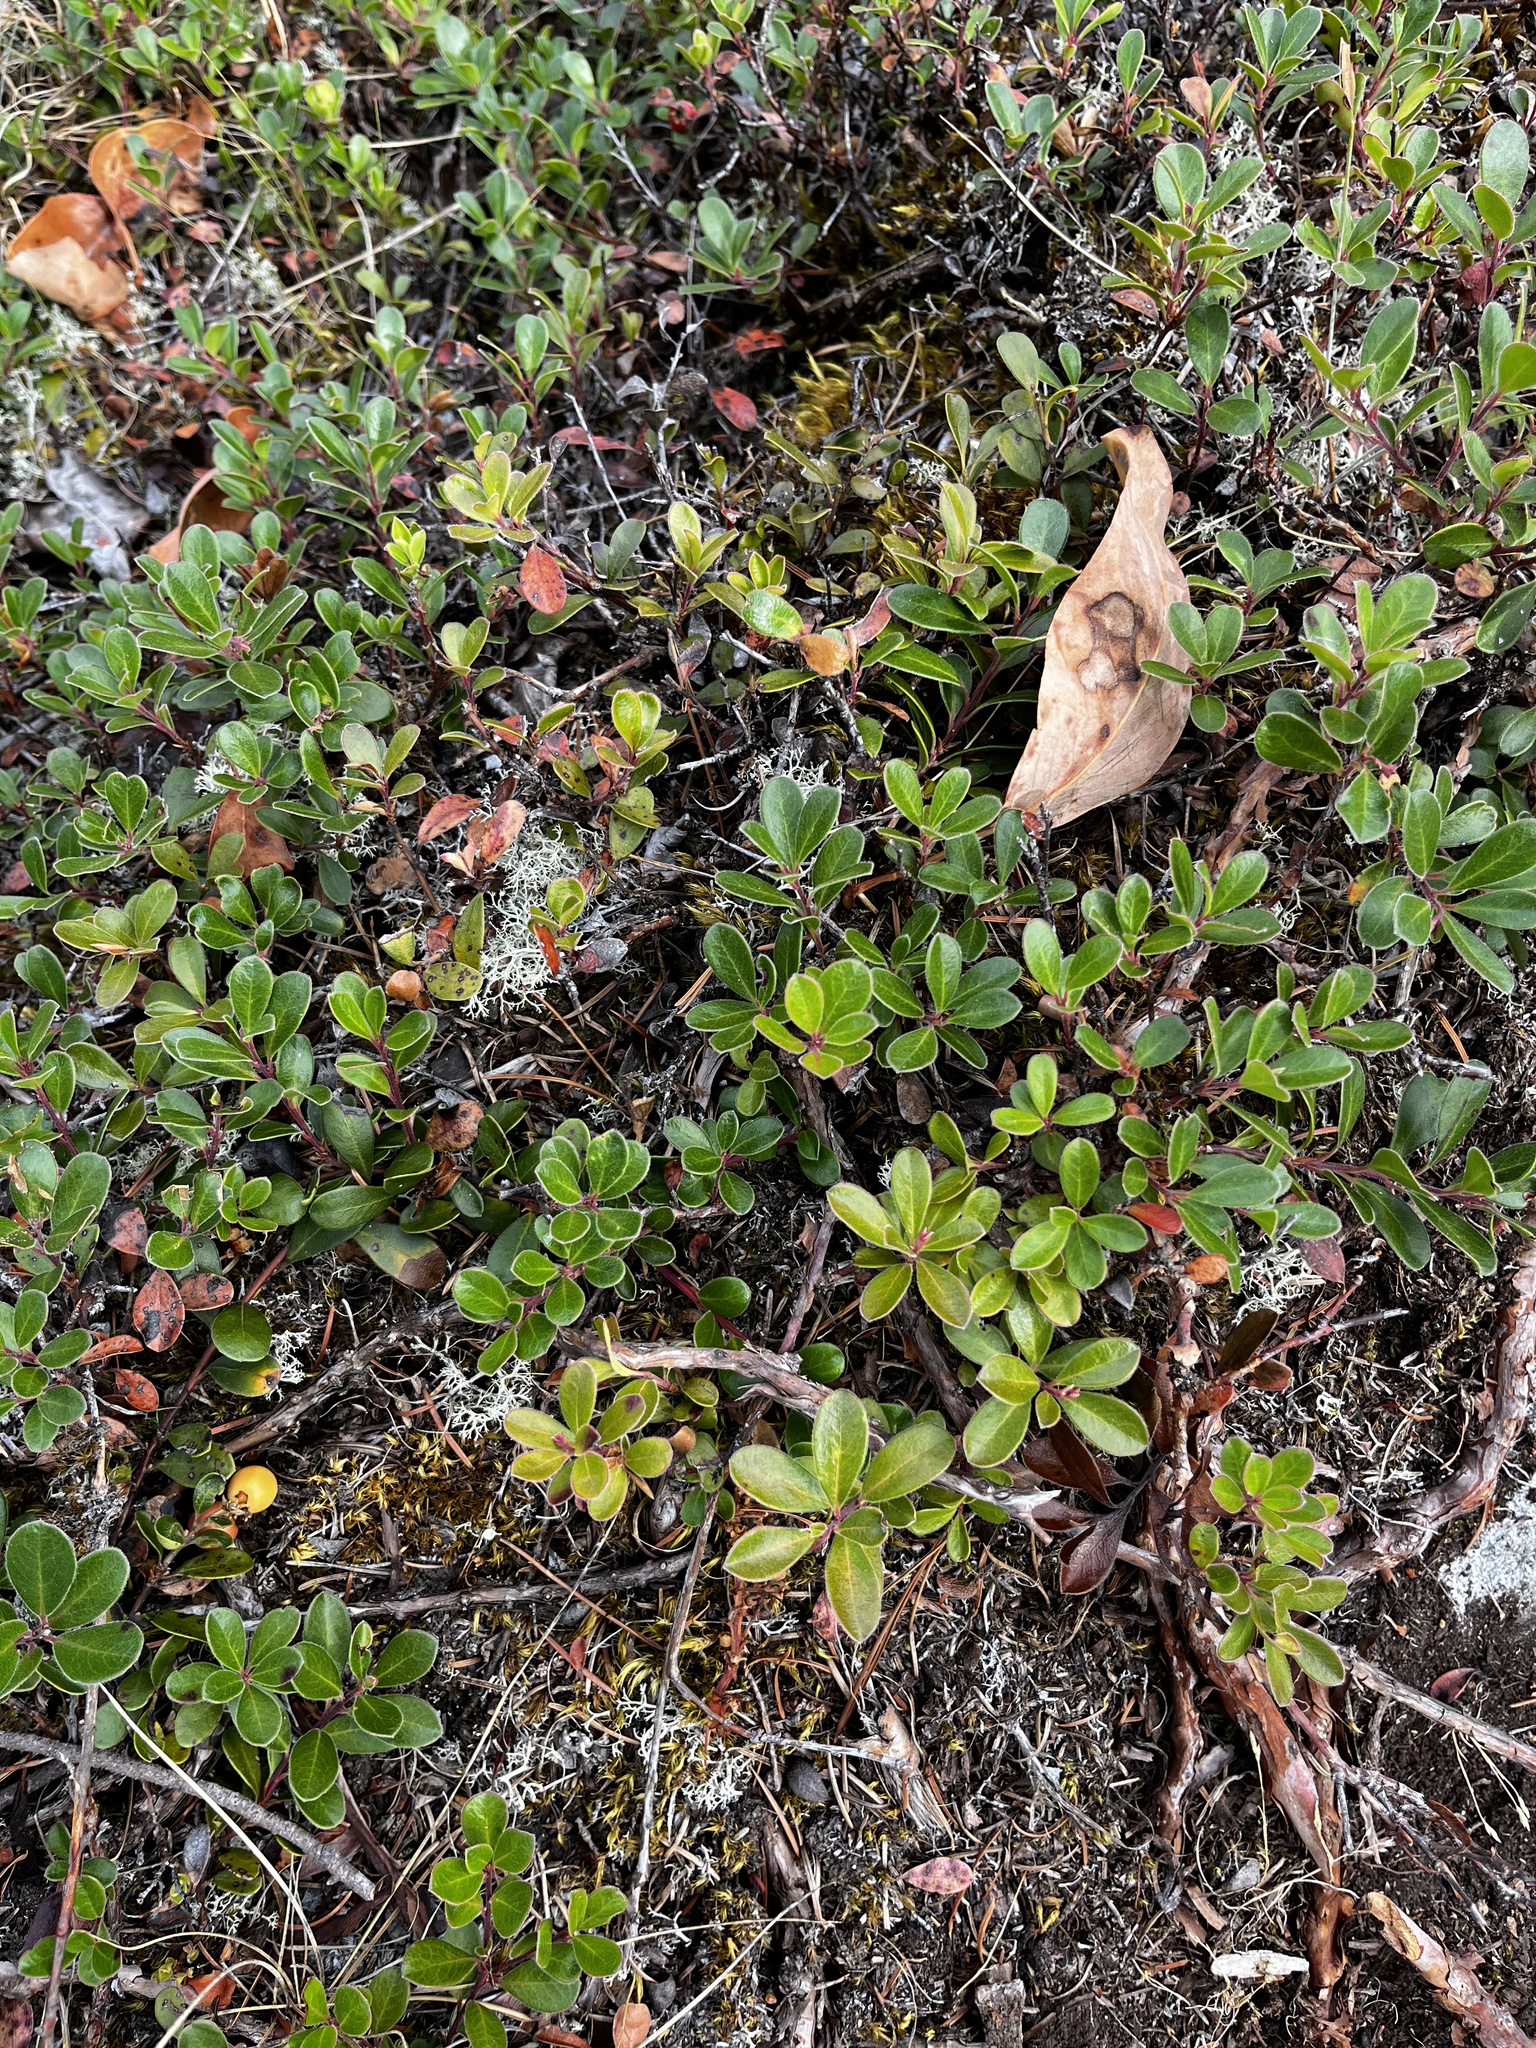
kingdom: Plantae
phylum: Tracheophyta
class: Magnoliopsida
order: Ericales
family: Ericaceae
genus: Arctostaphylos
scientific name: Arctostaphylos uva-ursi
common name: Bearberry
